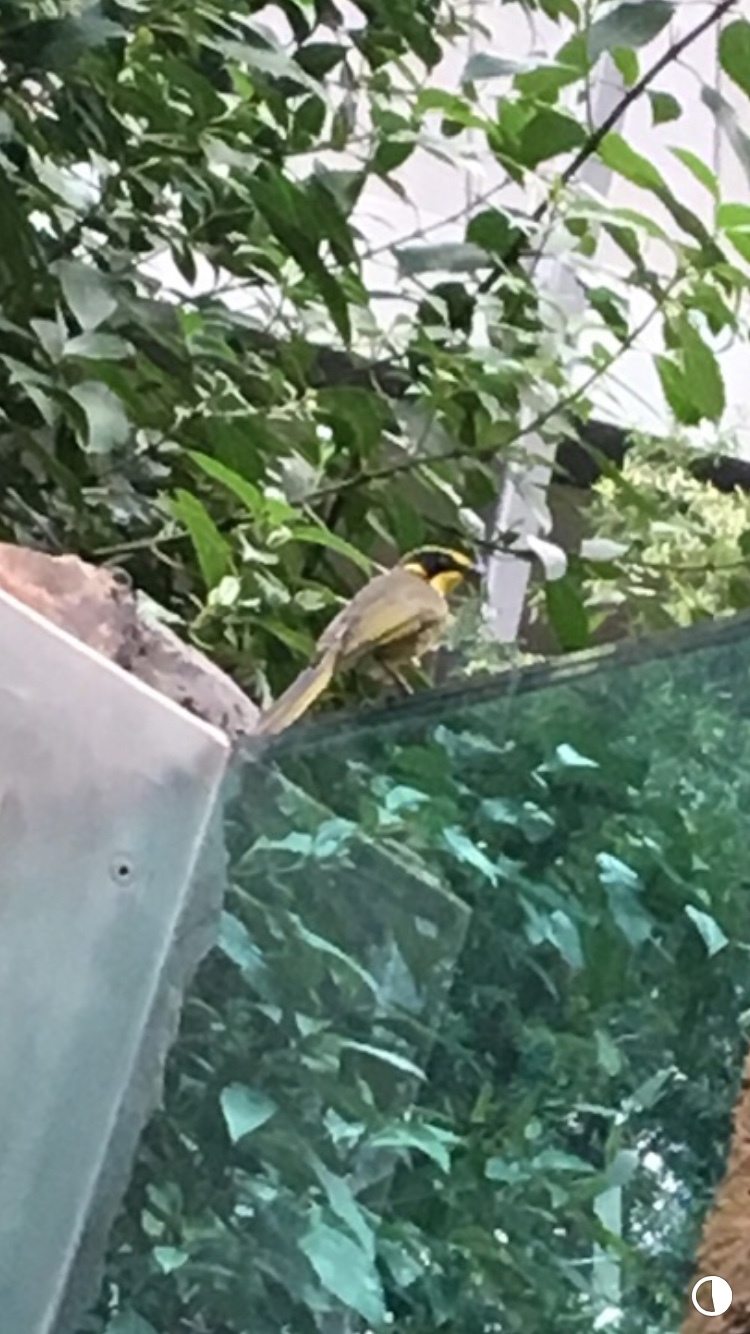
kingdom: Animalia
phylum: Chordata
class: Aves
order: Passeriformes
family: Meliphagidae
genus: Lichenostomus
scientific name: Lichenostomus melanops
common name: Yellow-tufted honeyeater
